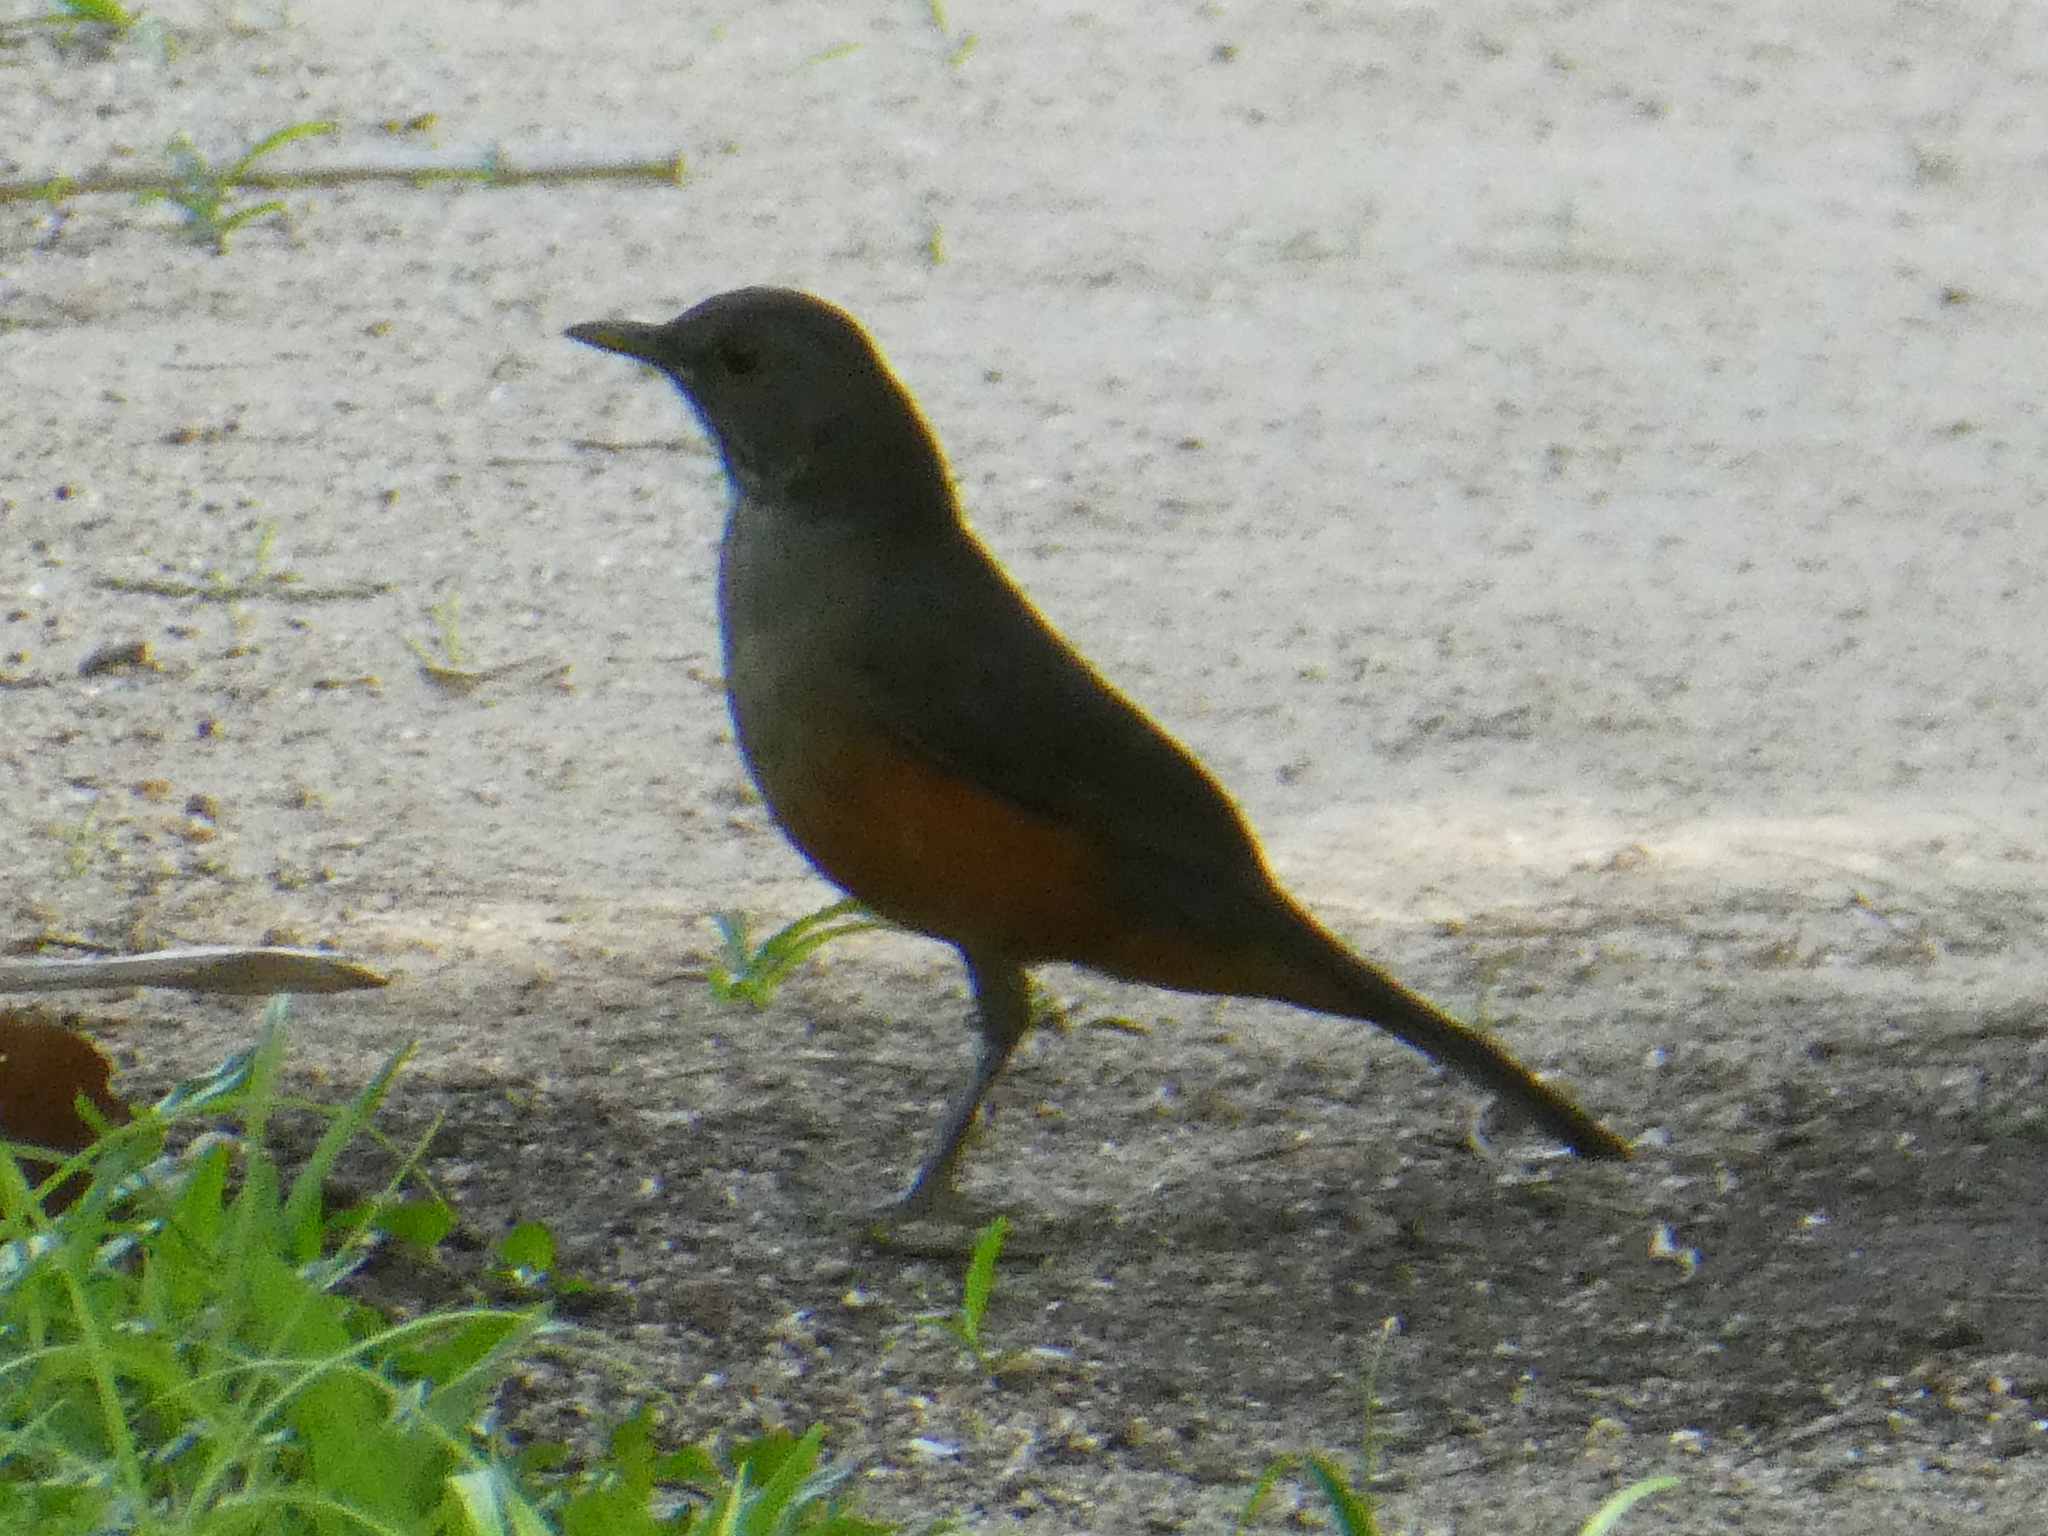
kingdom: Animalia
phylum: Chordata
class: Aves
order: Passeriformes
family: Turdidae
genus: Turdus
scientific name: Turdus rufiventris
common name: Rufous-bellied thrush
